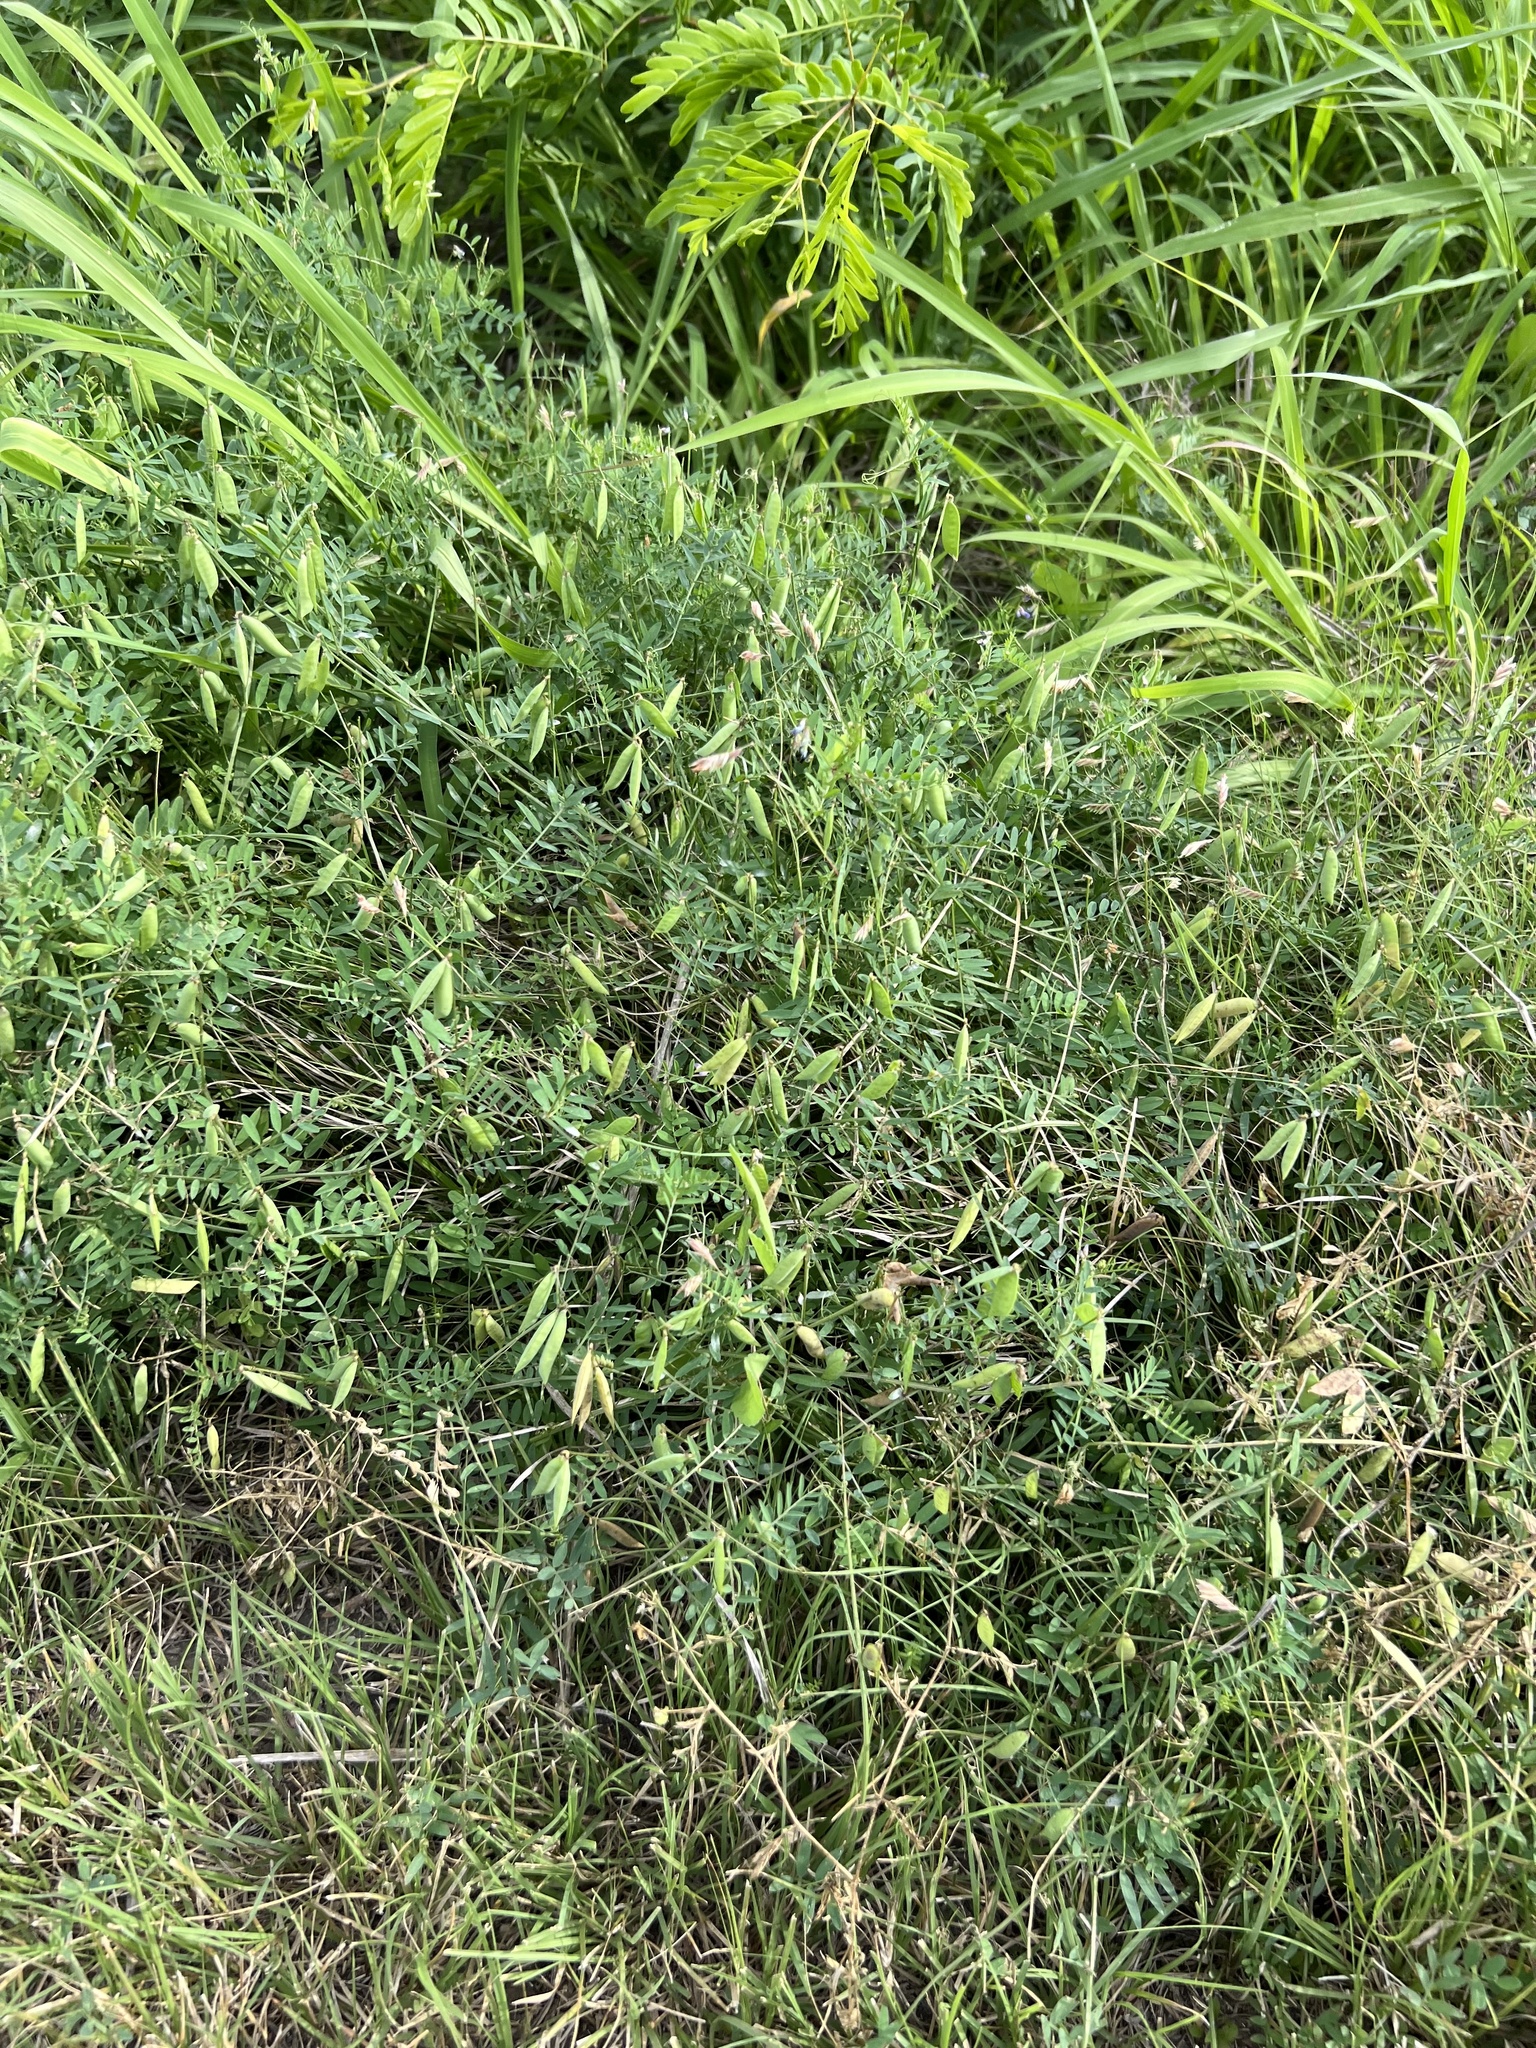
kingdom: Plantae
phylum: Tracheophyta
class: Magnoliopsida
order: Fabales
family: Fabaceae
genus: Vicia
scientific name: Vicia ludoviciana
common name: Louisiana vetch
